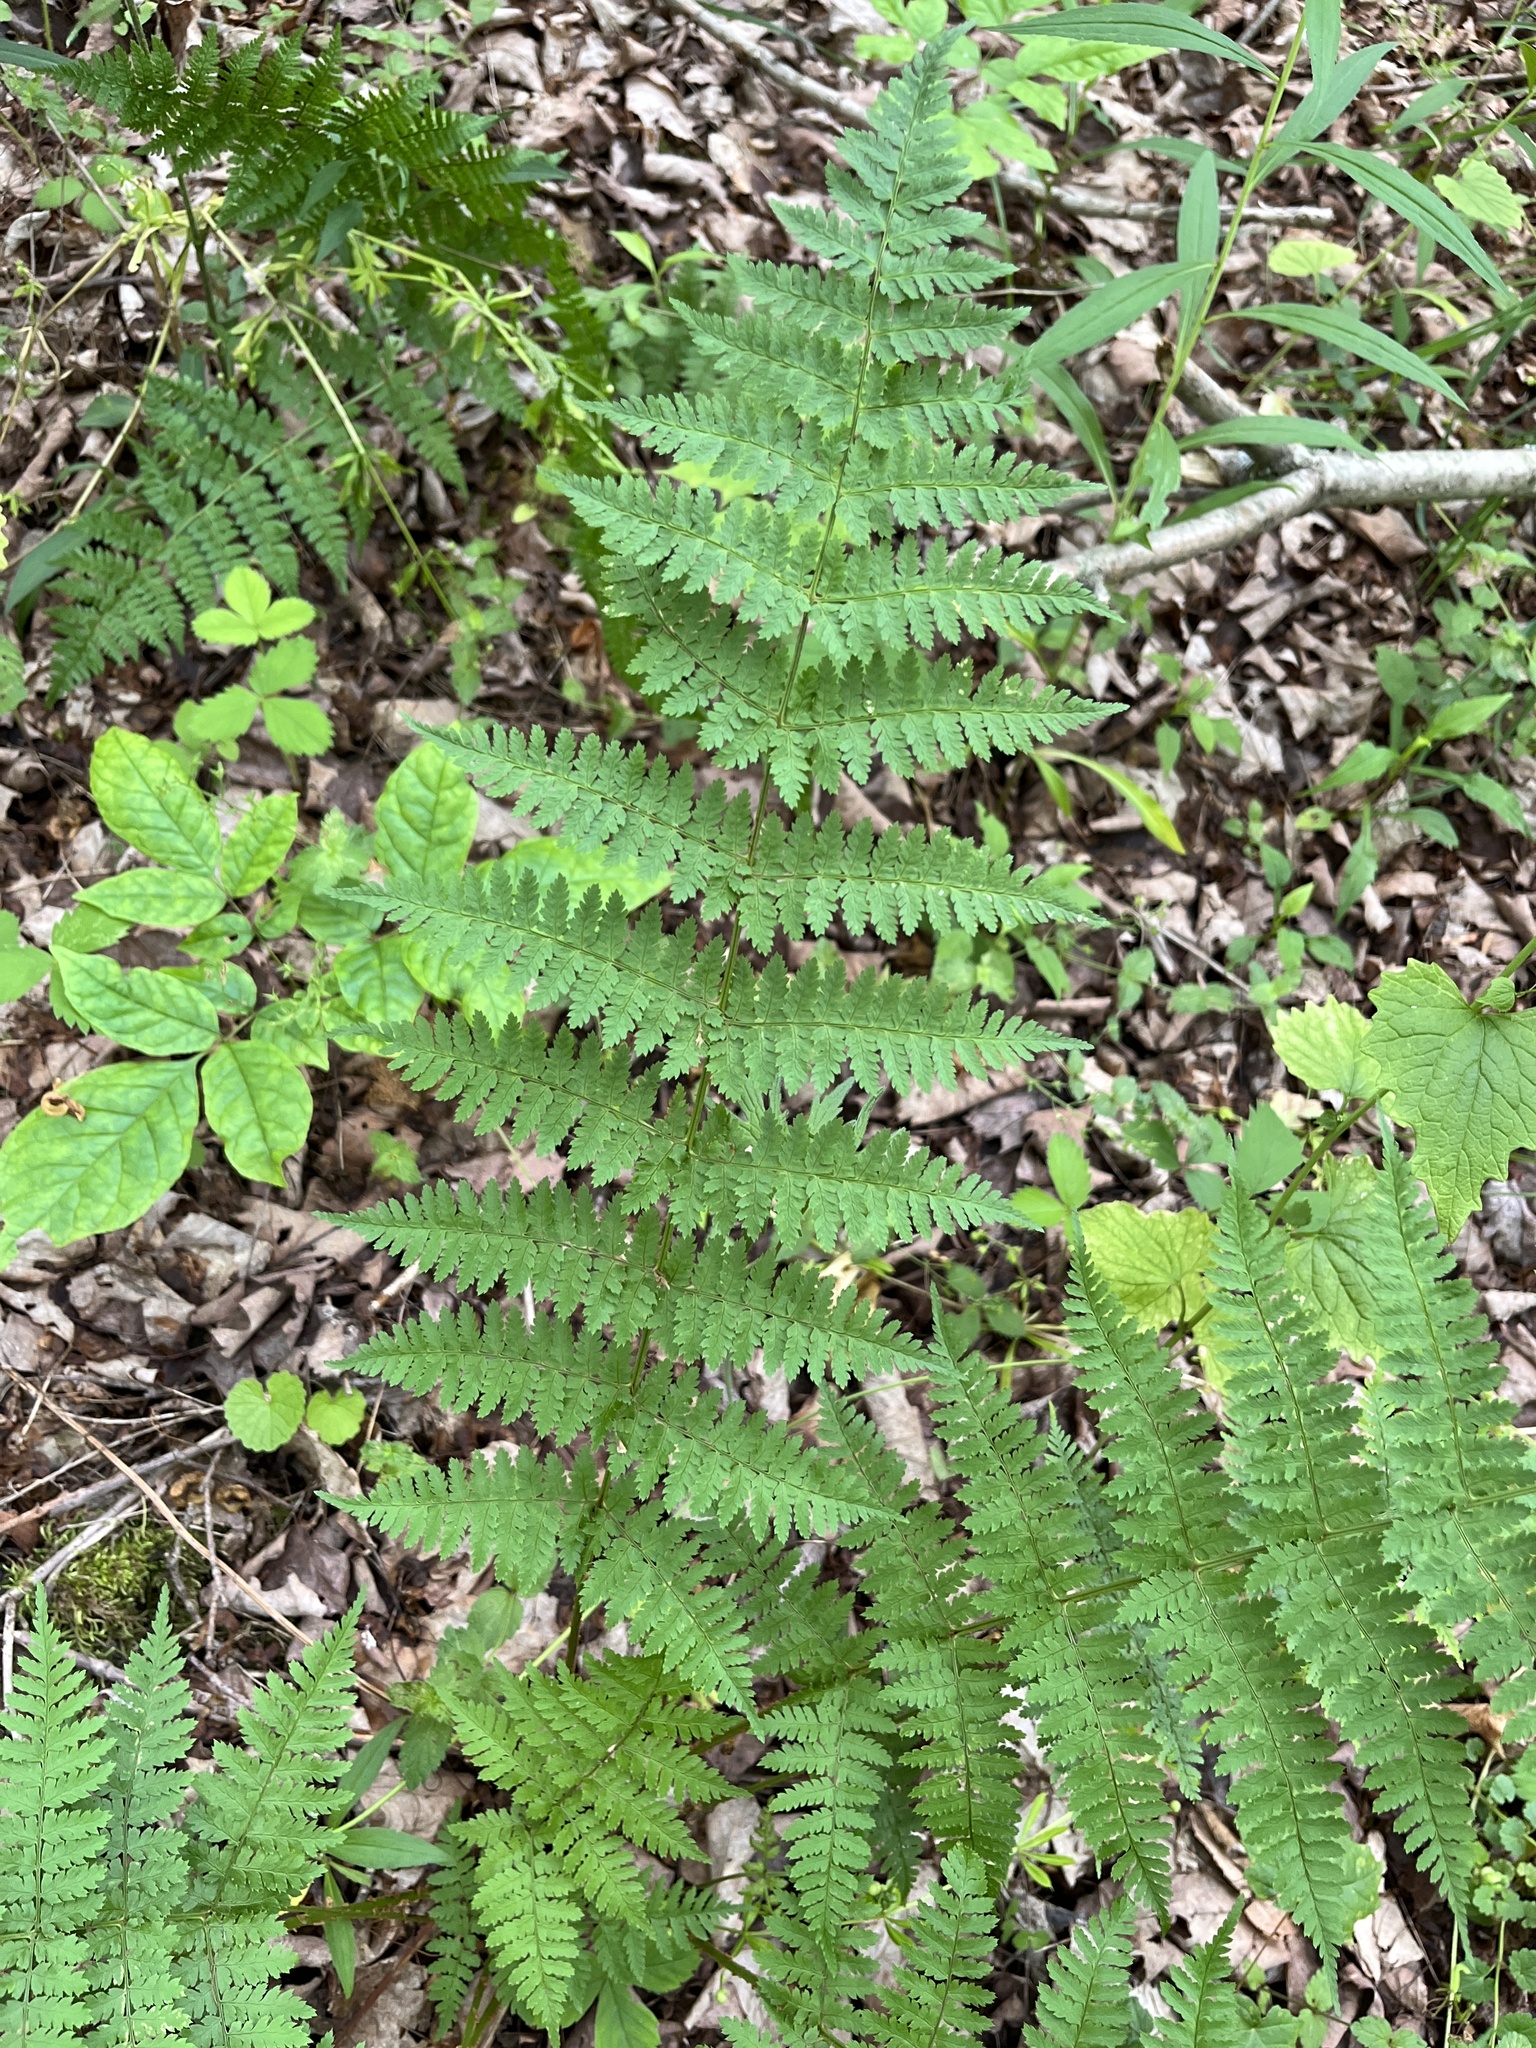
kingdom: Plantae
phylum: Tracheophyta
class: Polypodiopsida
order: Polypodiales
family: Dryopteridaceae
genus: Dryopteris
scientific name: Dryopteris intermedia
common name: Evergreen wood fern
